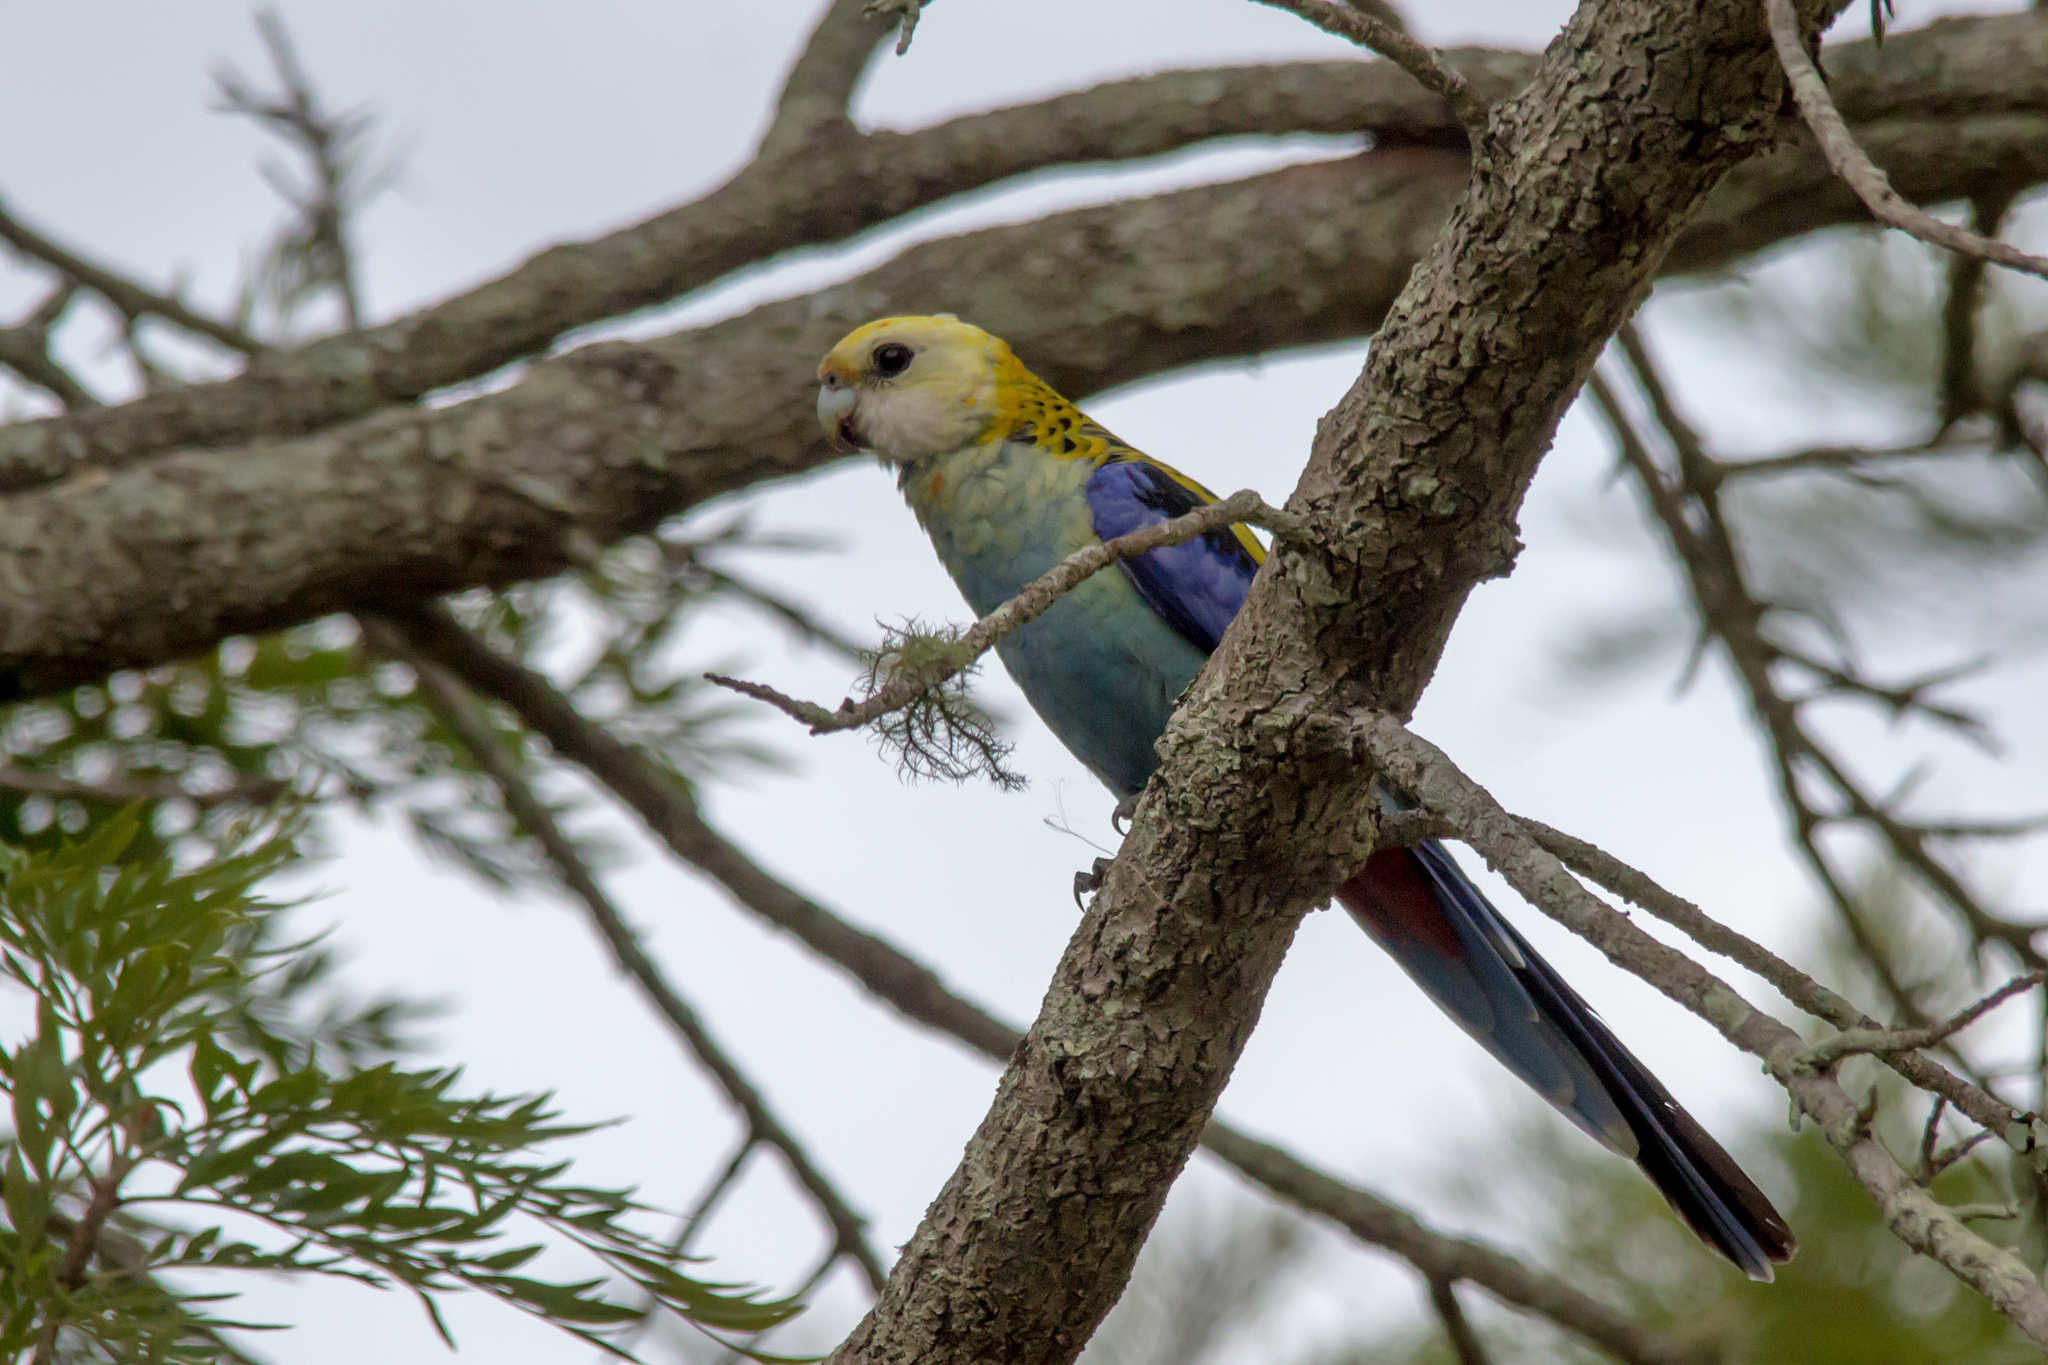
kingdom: Animalia
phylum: Chordata
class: Aves
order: Psittaciformes
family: Psittacidae
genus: Platycercus
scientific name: Platycercus adscitus
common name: Pale-headed rosella
